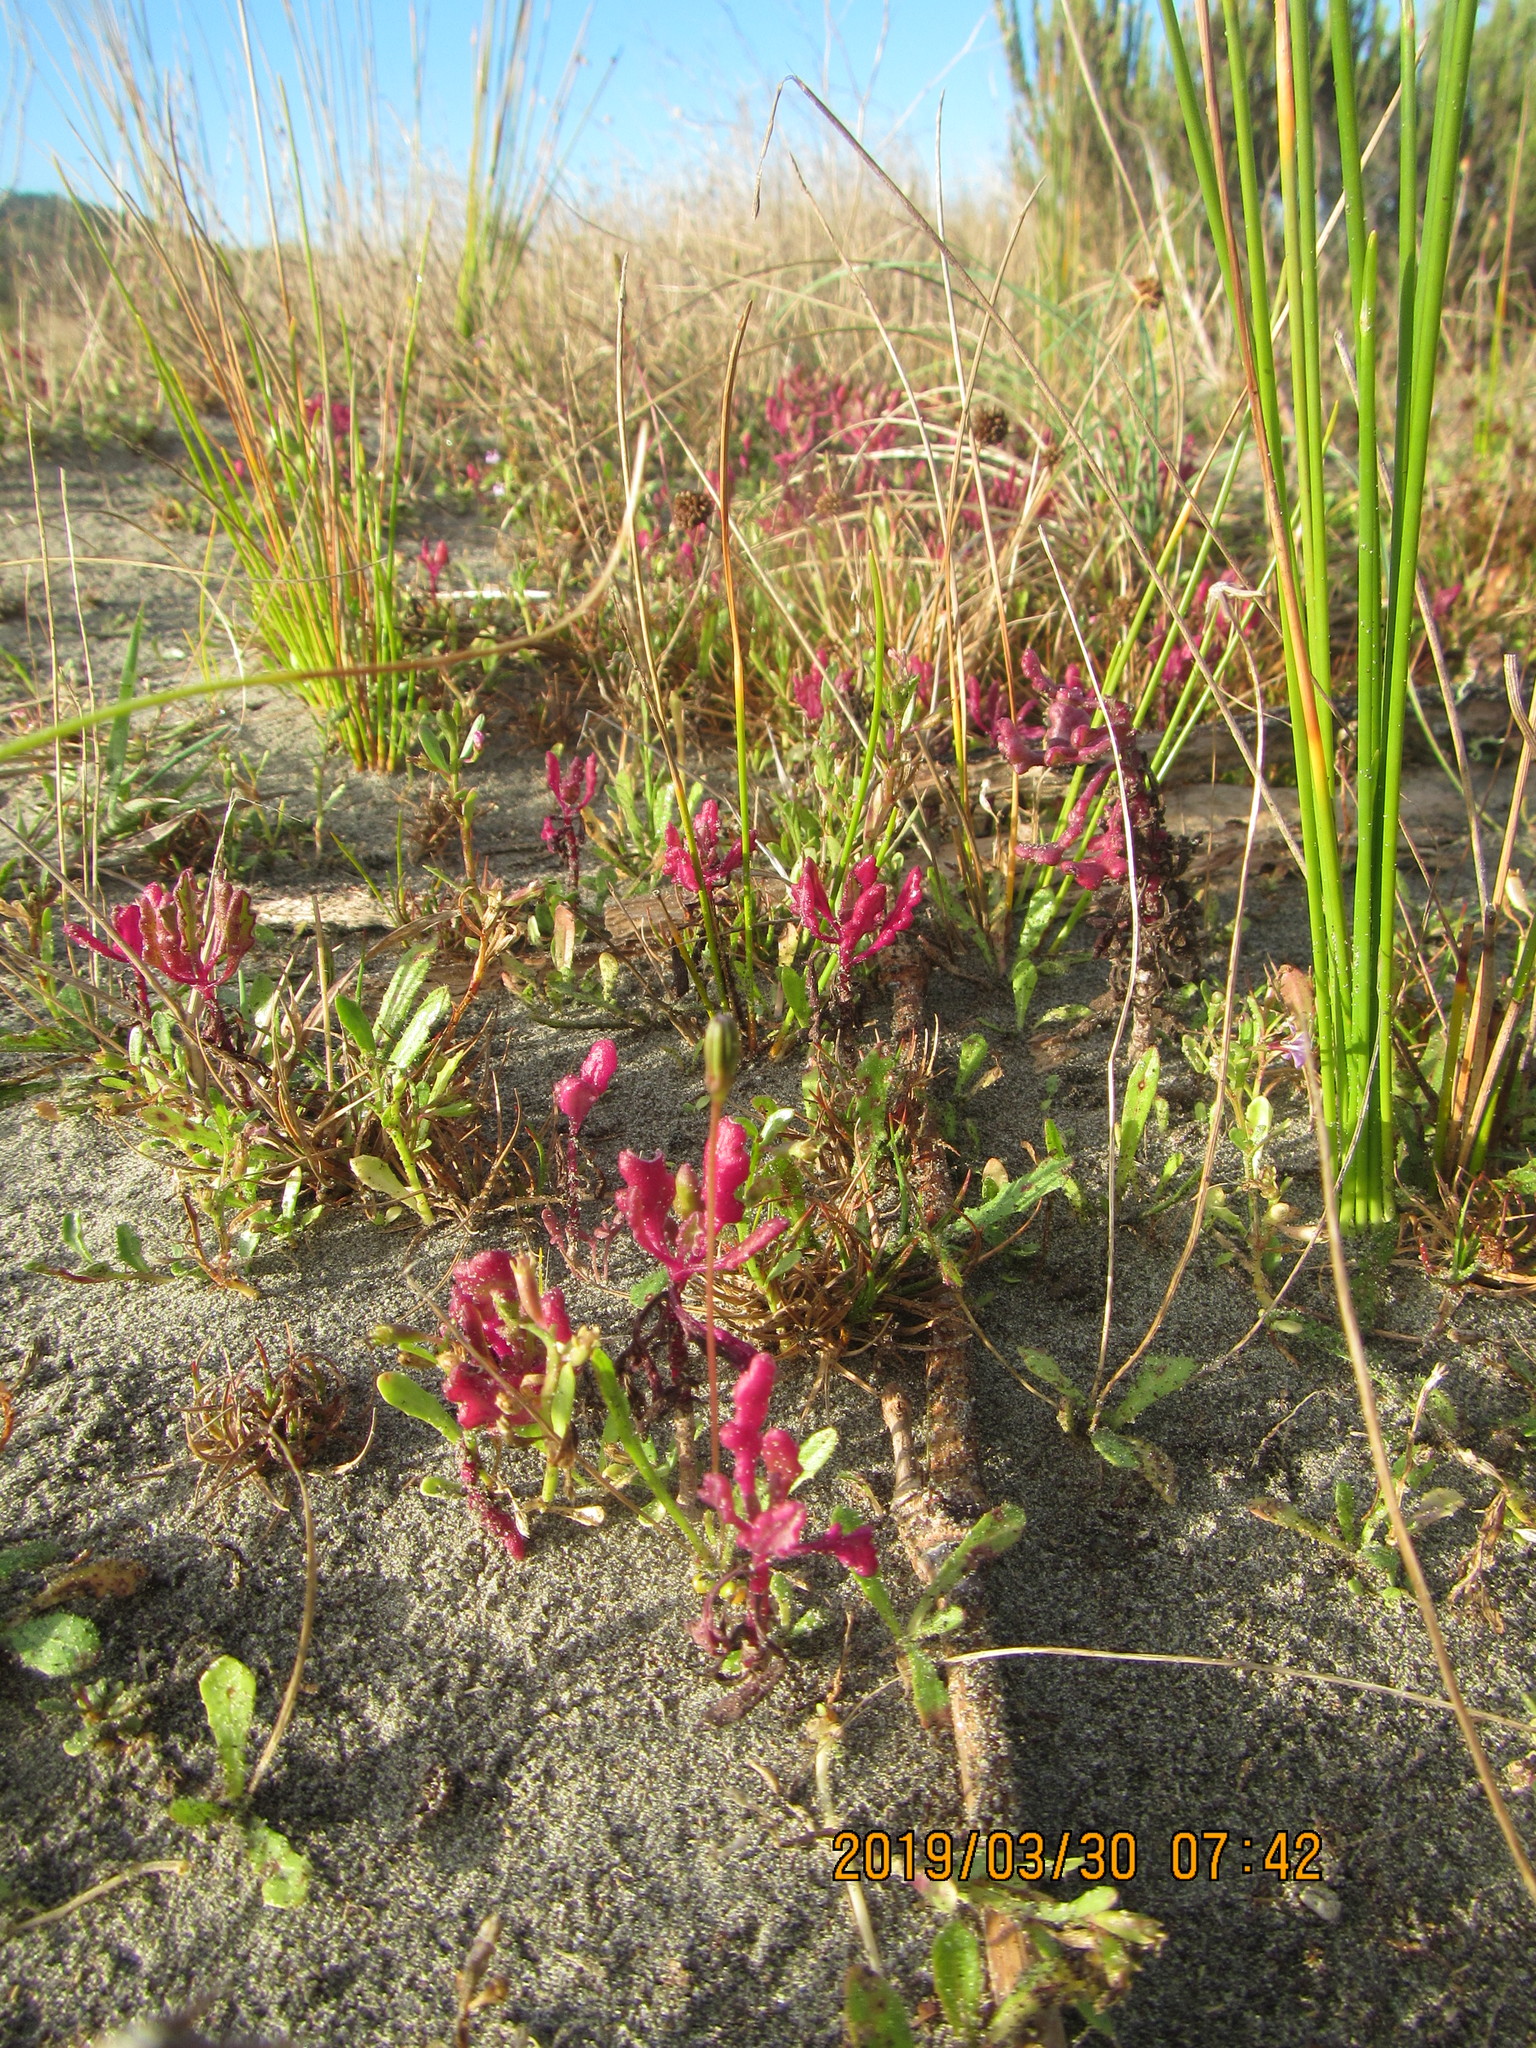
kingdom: Plantae
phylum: Tracheophyta
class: Magnoliopsida
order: Asterales
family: Asteraceae
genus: Senecio
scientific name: Senecio elegans
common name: Purple groundsel
